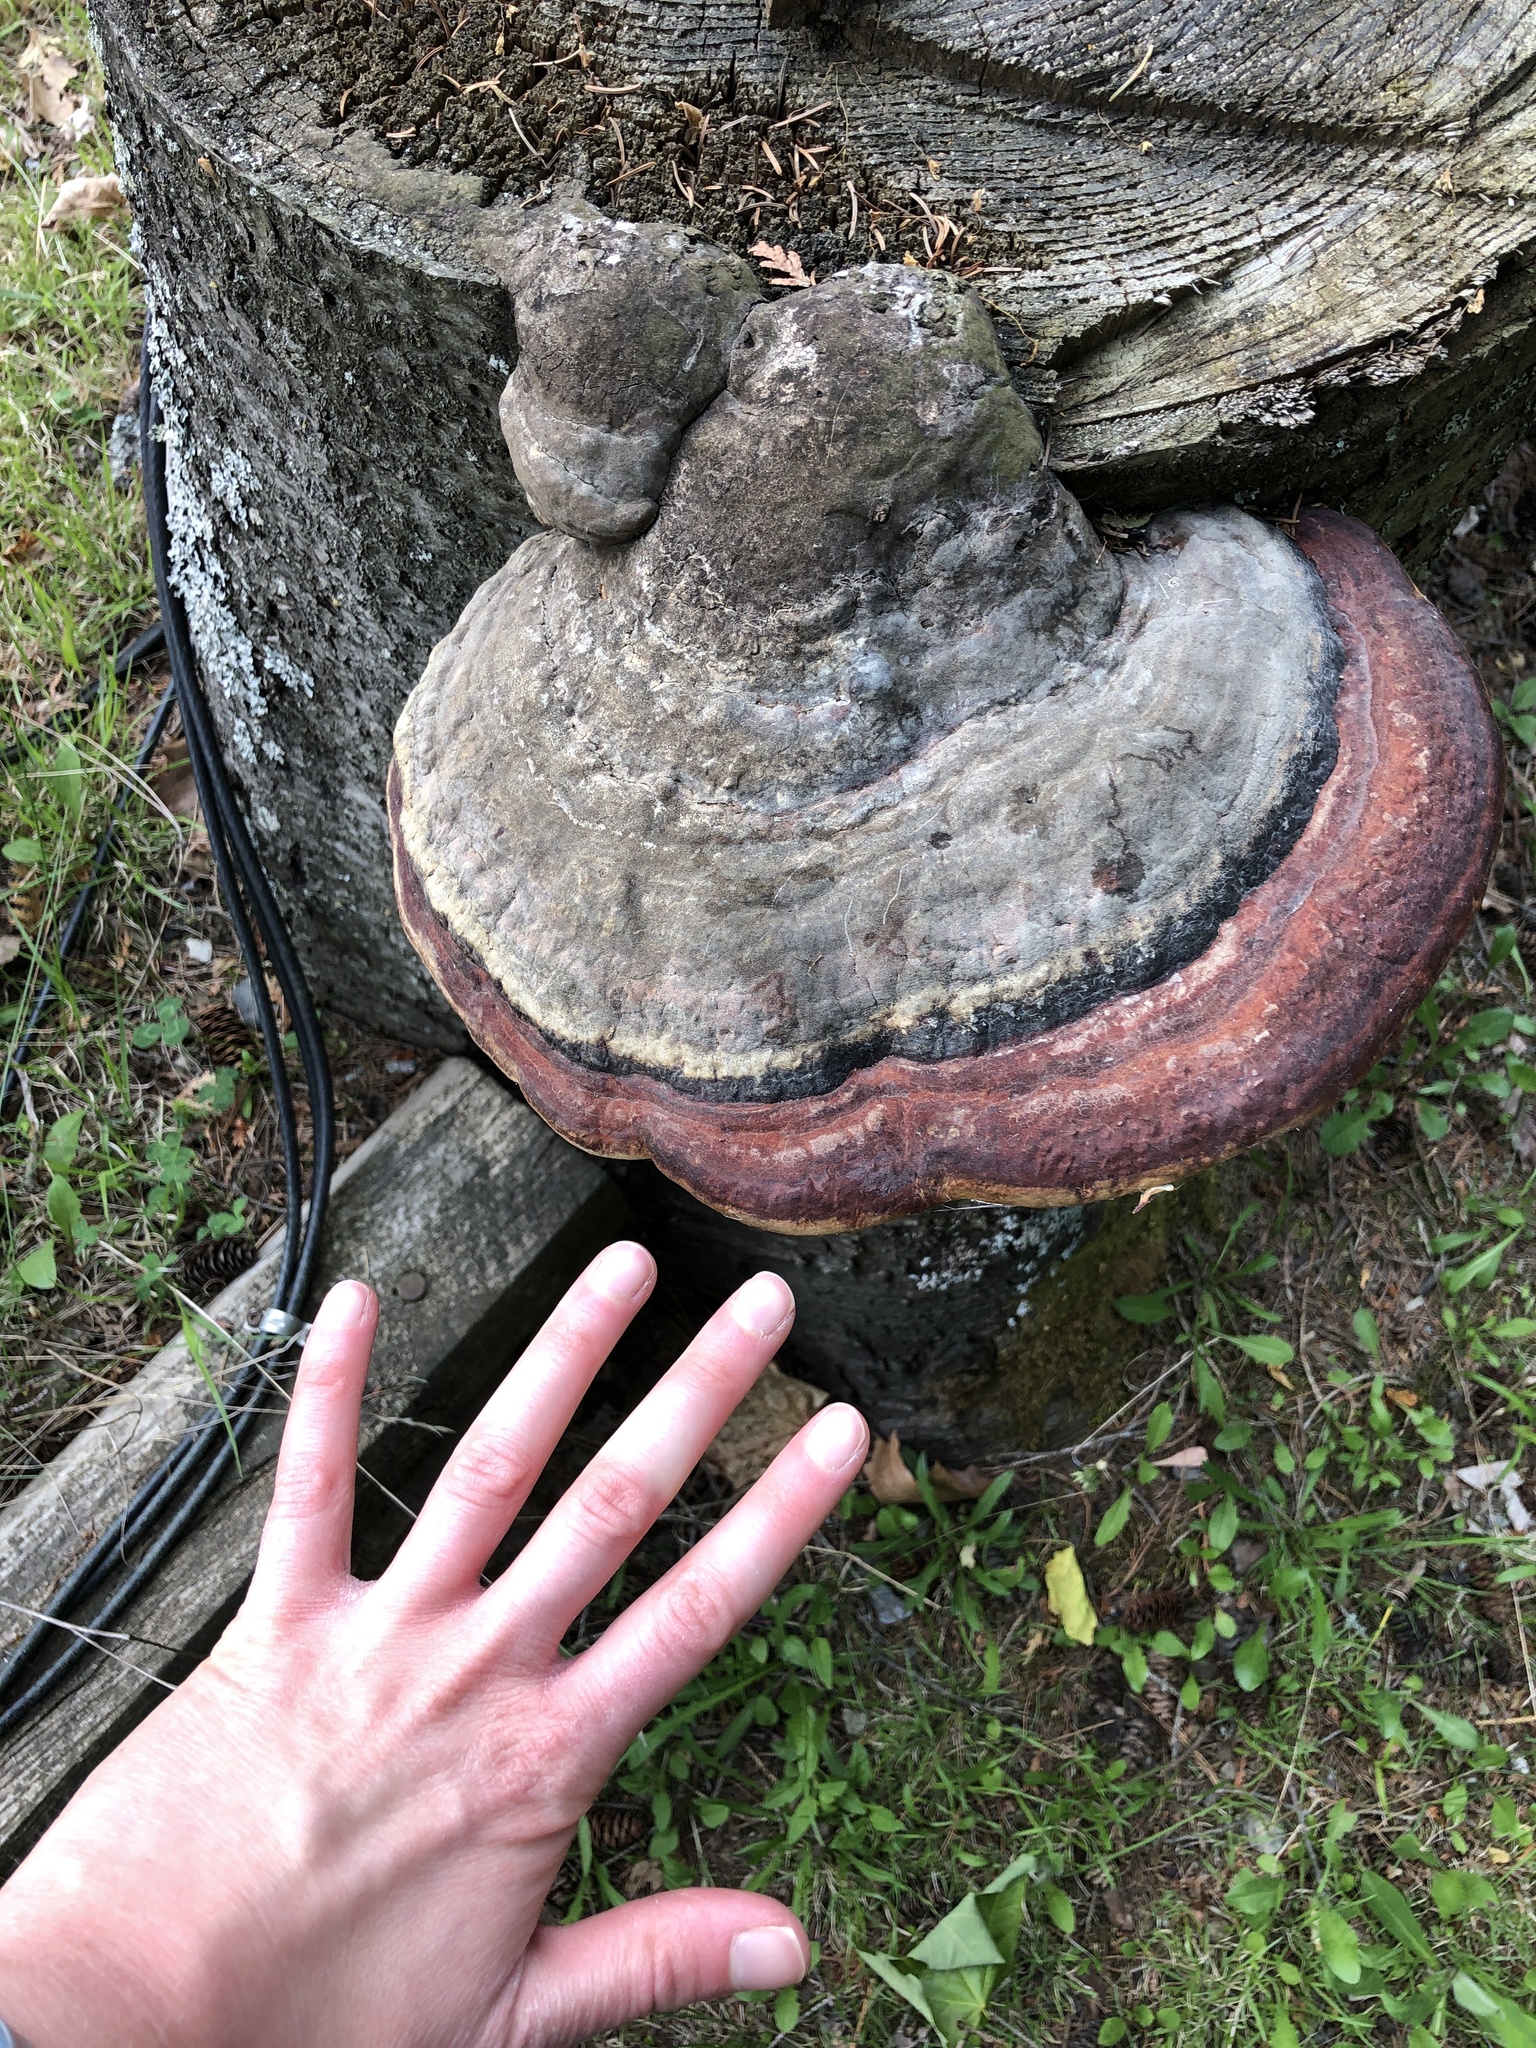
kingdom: Fungi
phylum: Basidiomycota
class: Agaricomycetes
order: Polyporales
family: Fomitopsidaceae
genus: Fomitopsis
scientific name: Fomitopsis mounceae
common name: Northern red belt
